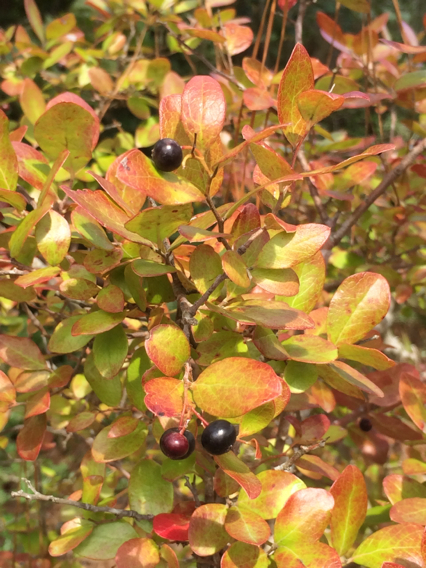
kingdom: Plantae
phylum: Tracheophyta
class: Magnoliopsida
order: Ericales
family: Ericaceae
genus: Vaccinium
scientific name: Vaccinium arboreum
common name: Farkleberry
